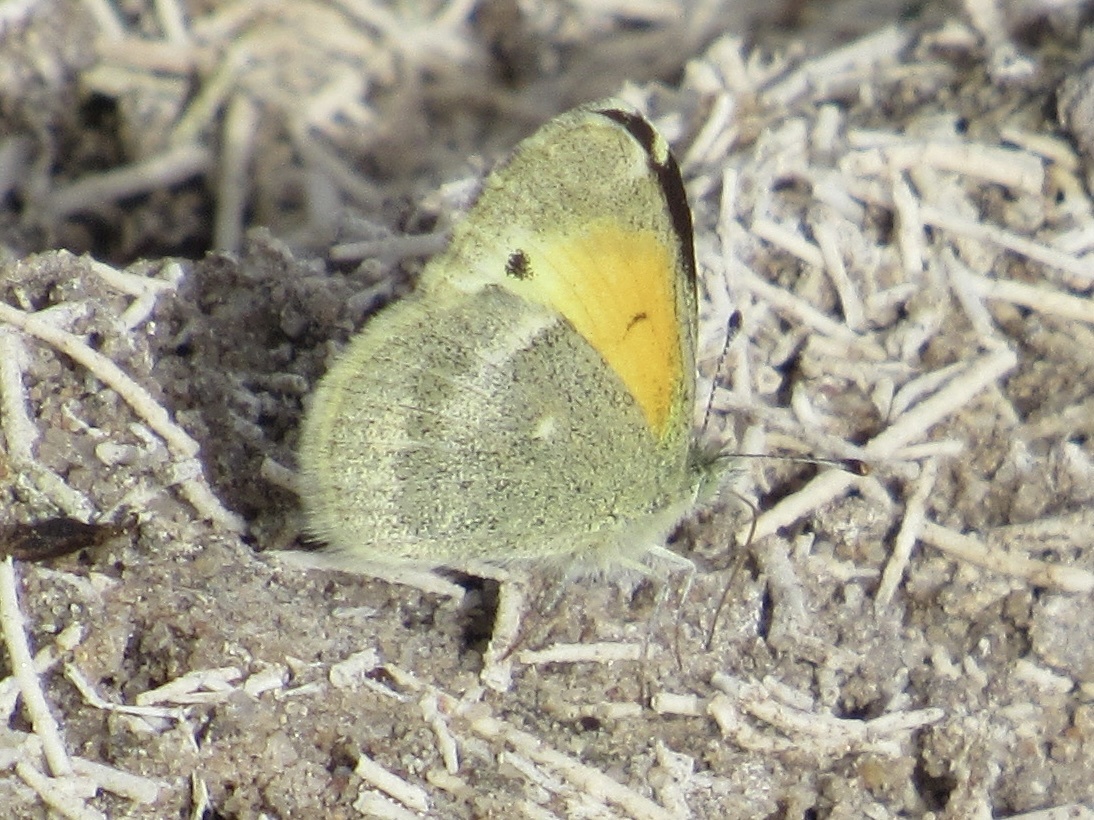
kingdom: Animalia
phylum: Arthropoda
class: Insecta
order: Lepidoptera
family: Pieridae
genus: Nathalis
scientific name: Nathalis iole
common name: Dainty sulphur
